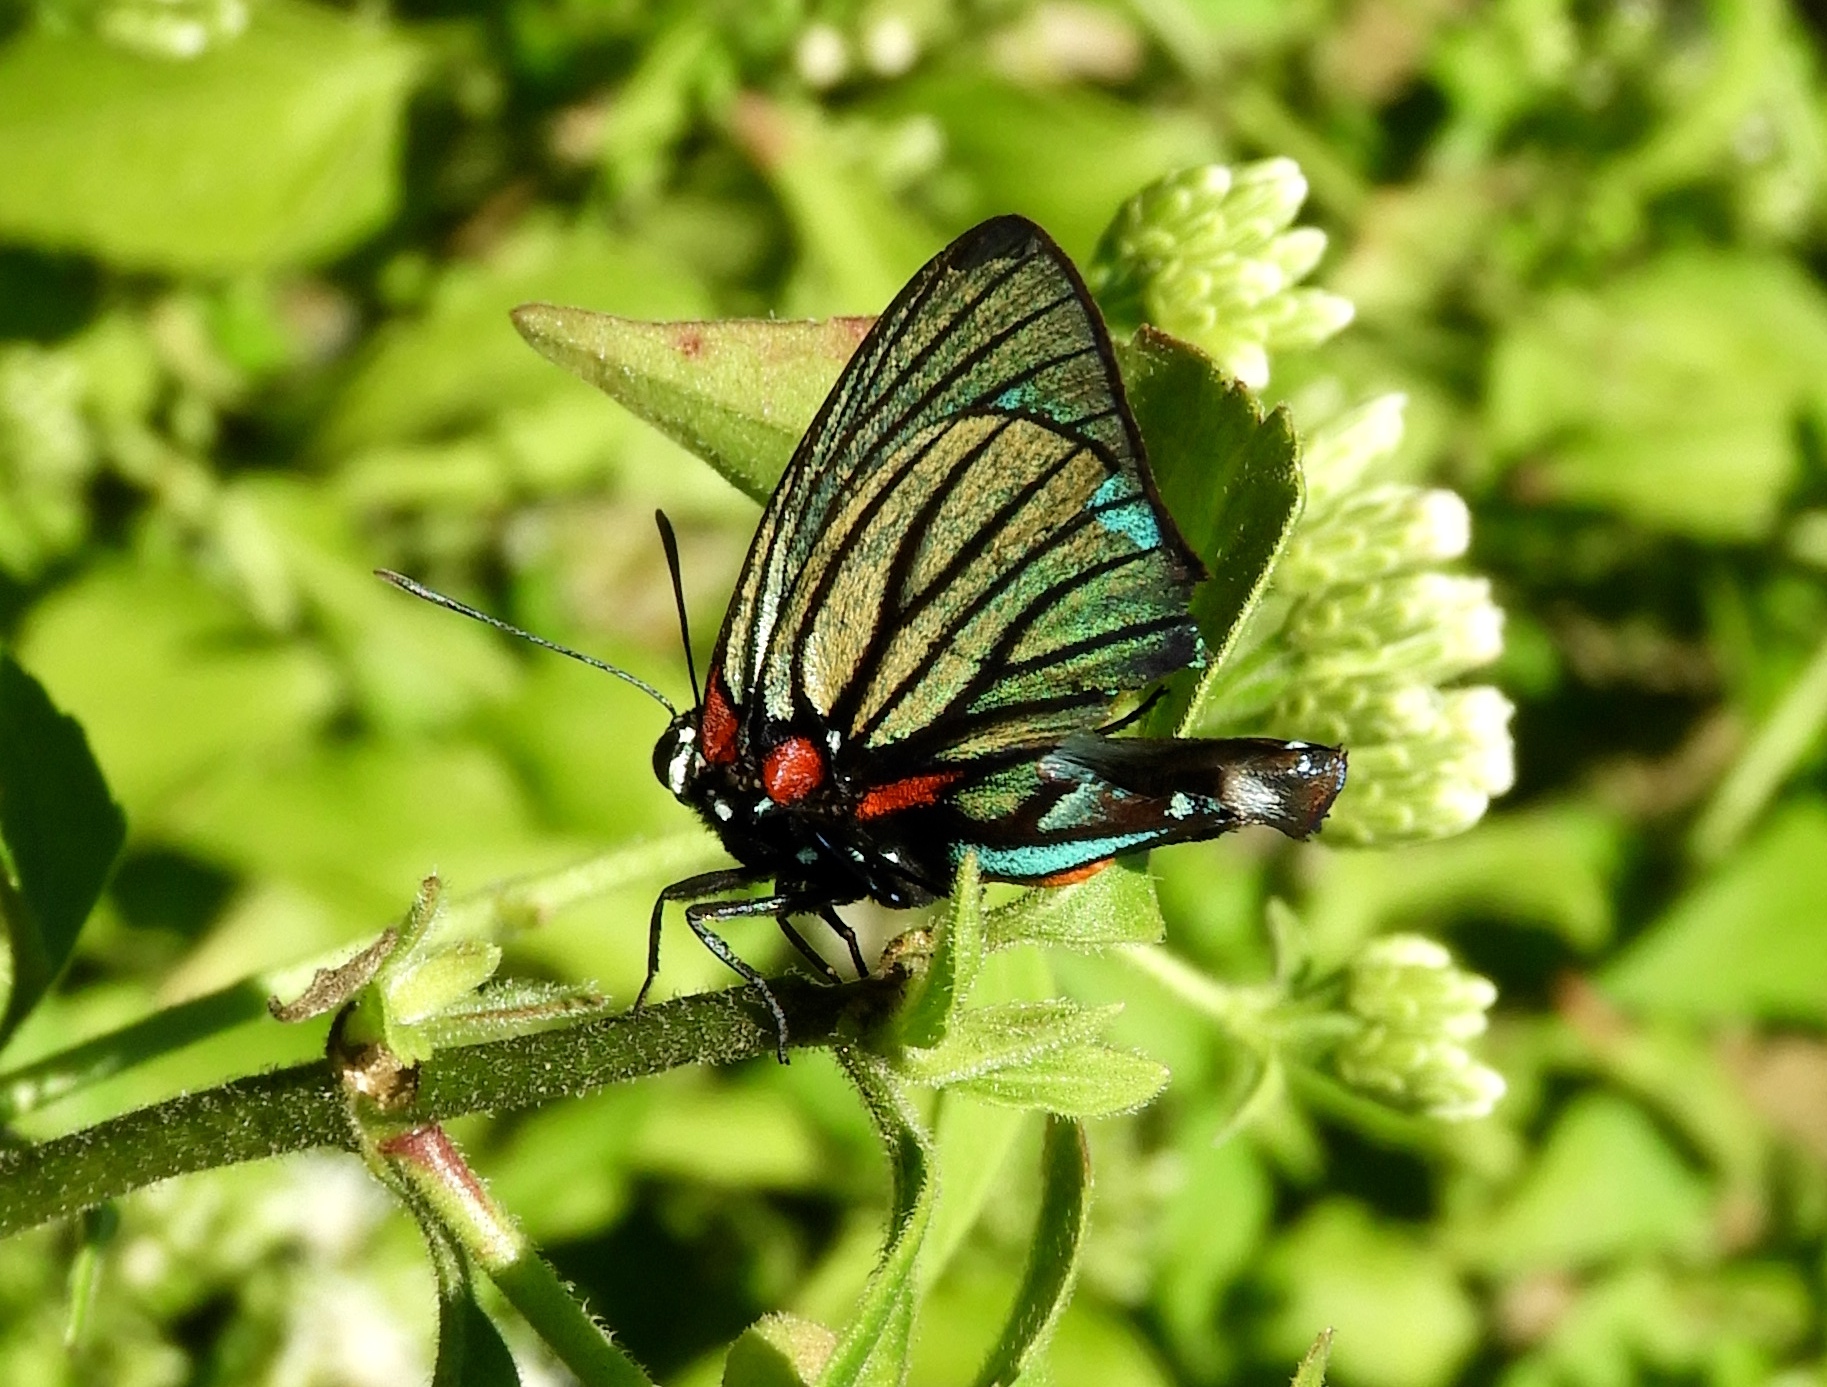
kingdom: Animalia
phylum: Arthropoda
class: Insecta
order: Lepidoptera
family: Lycaenidae
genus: Thecla
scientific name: Thecla polybe
